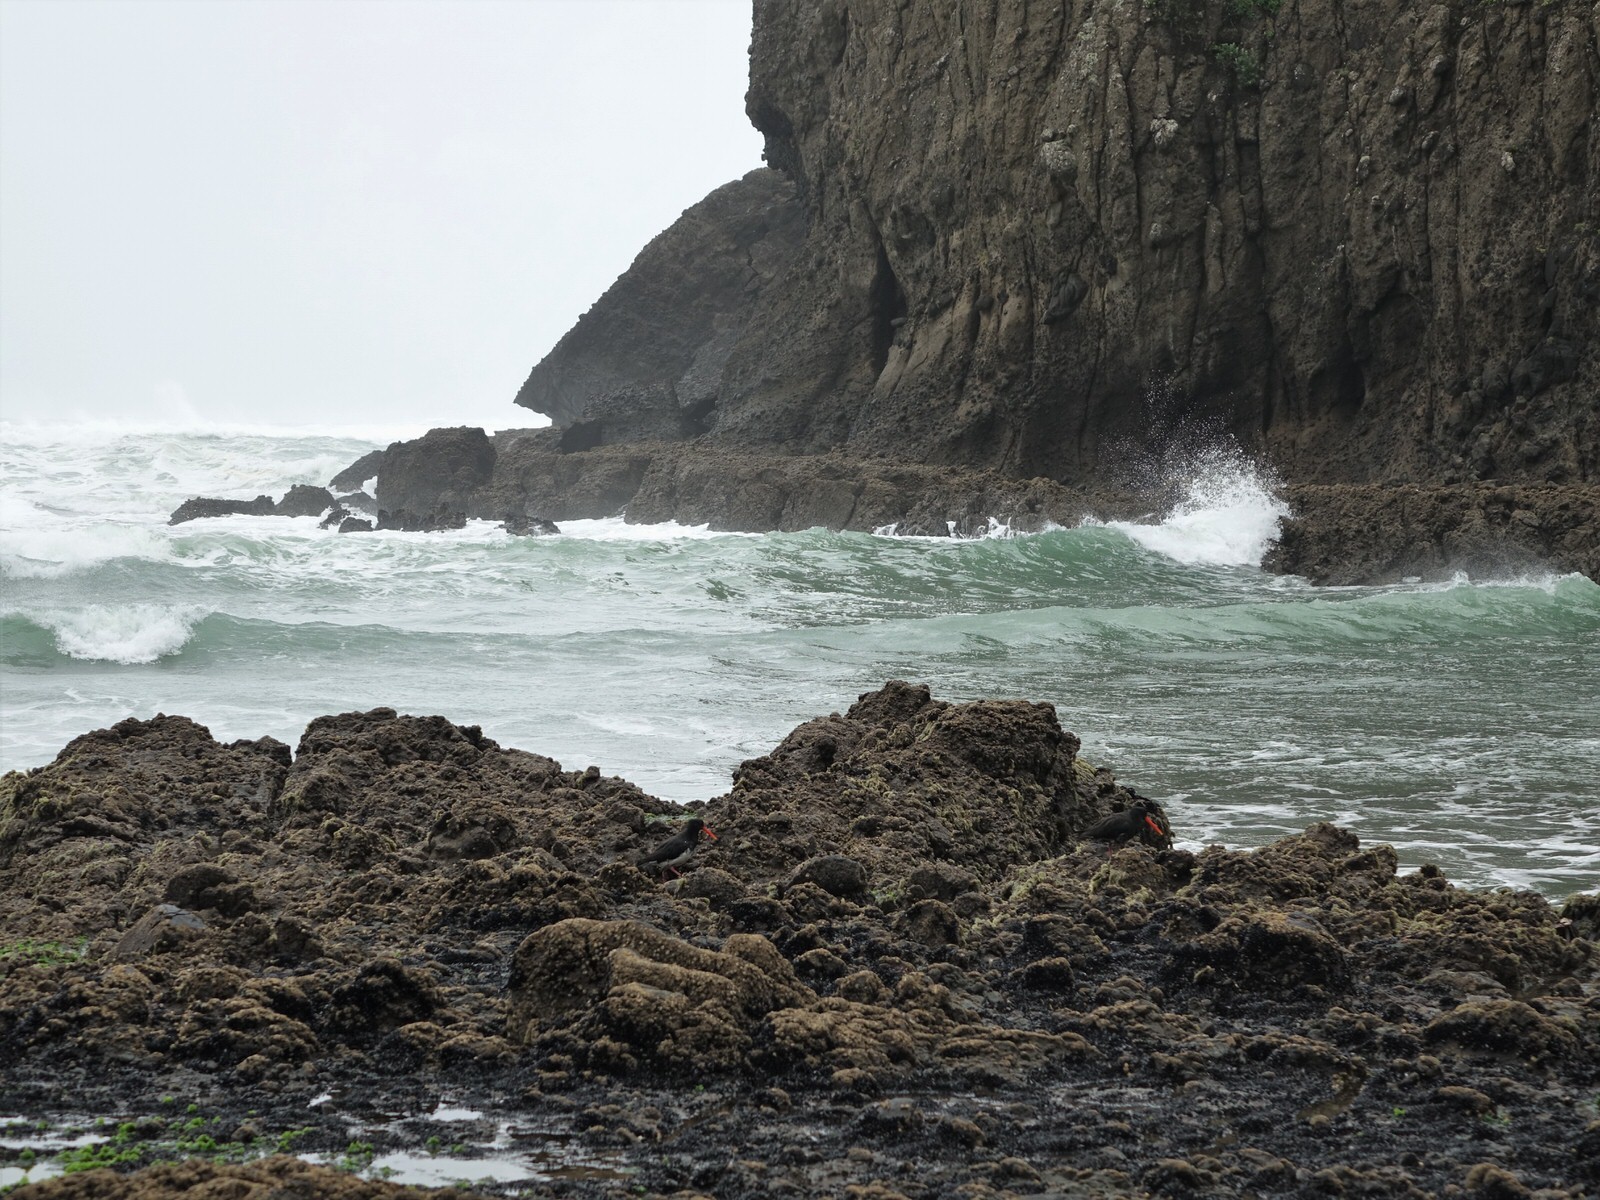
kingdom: Animalia
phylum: Chordata
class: Aves
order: Charadriiformes
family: Haematopodidae
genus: Haematopus
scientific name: Haematopus unicolor
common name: Variable oystercatcher
